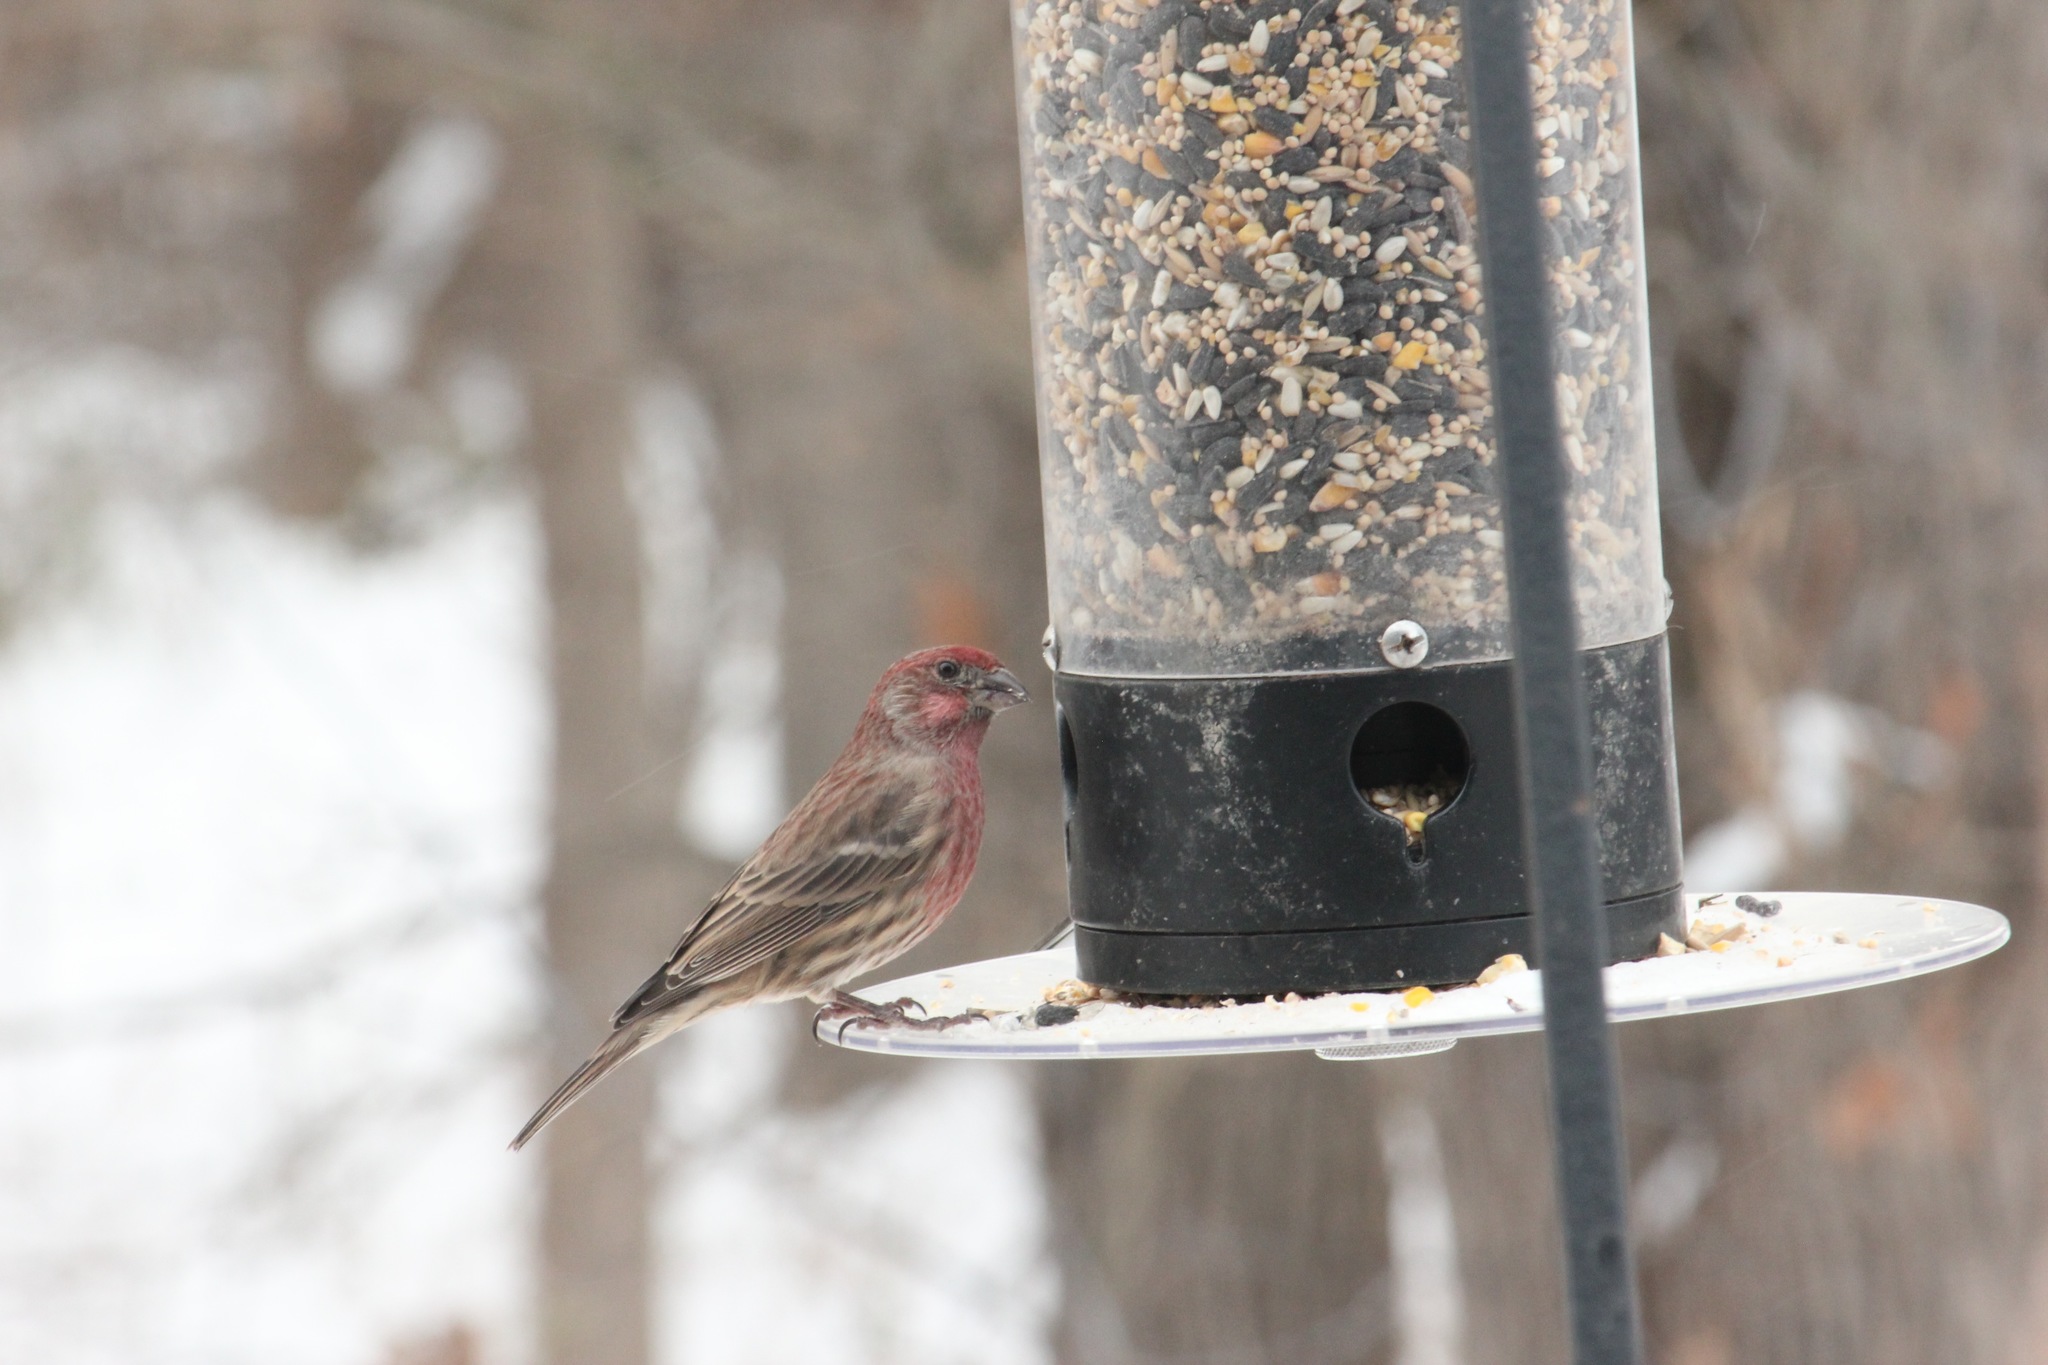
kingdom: Animalia
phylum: Chordata
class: Aves
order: Passeriformes
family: Fringillidae
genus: Haemorhous
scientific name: Haemorhous mexicanus
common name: House finch
